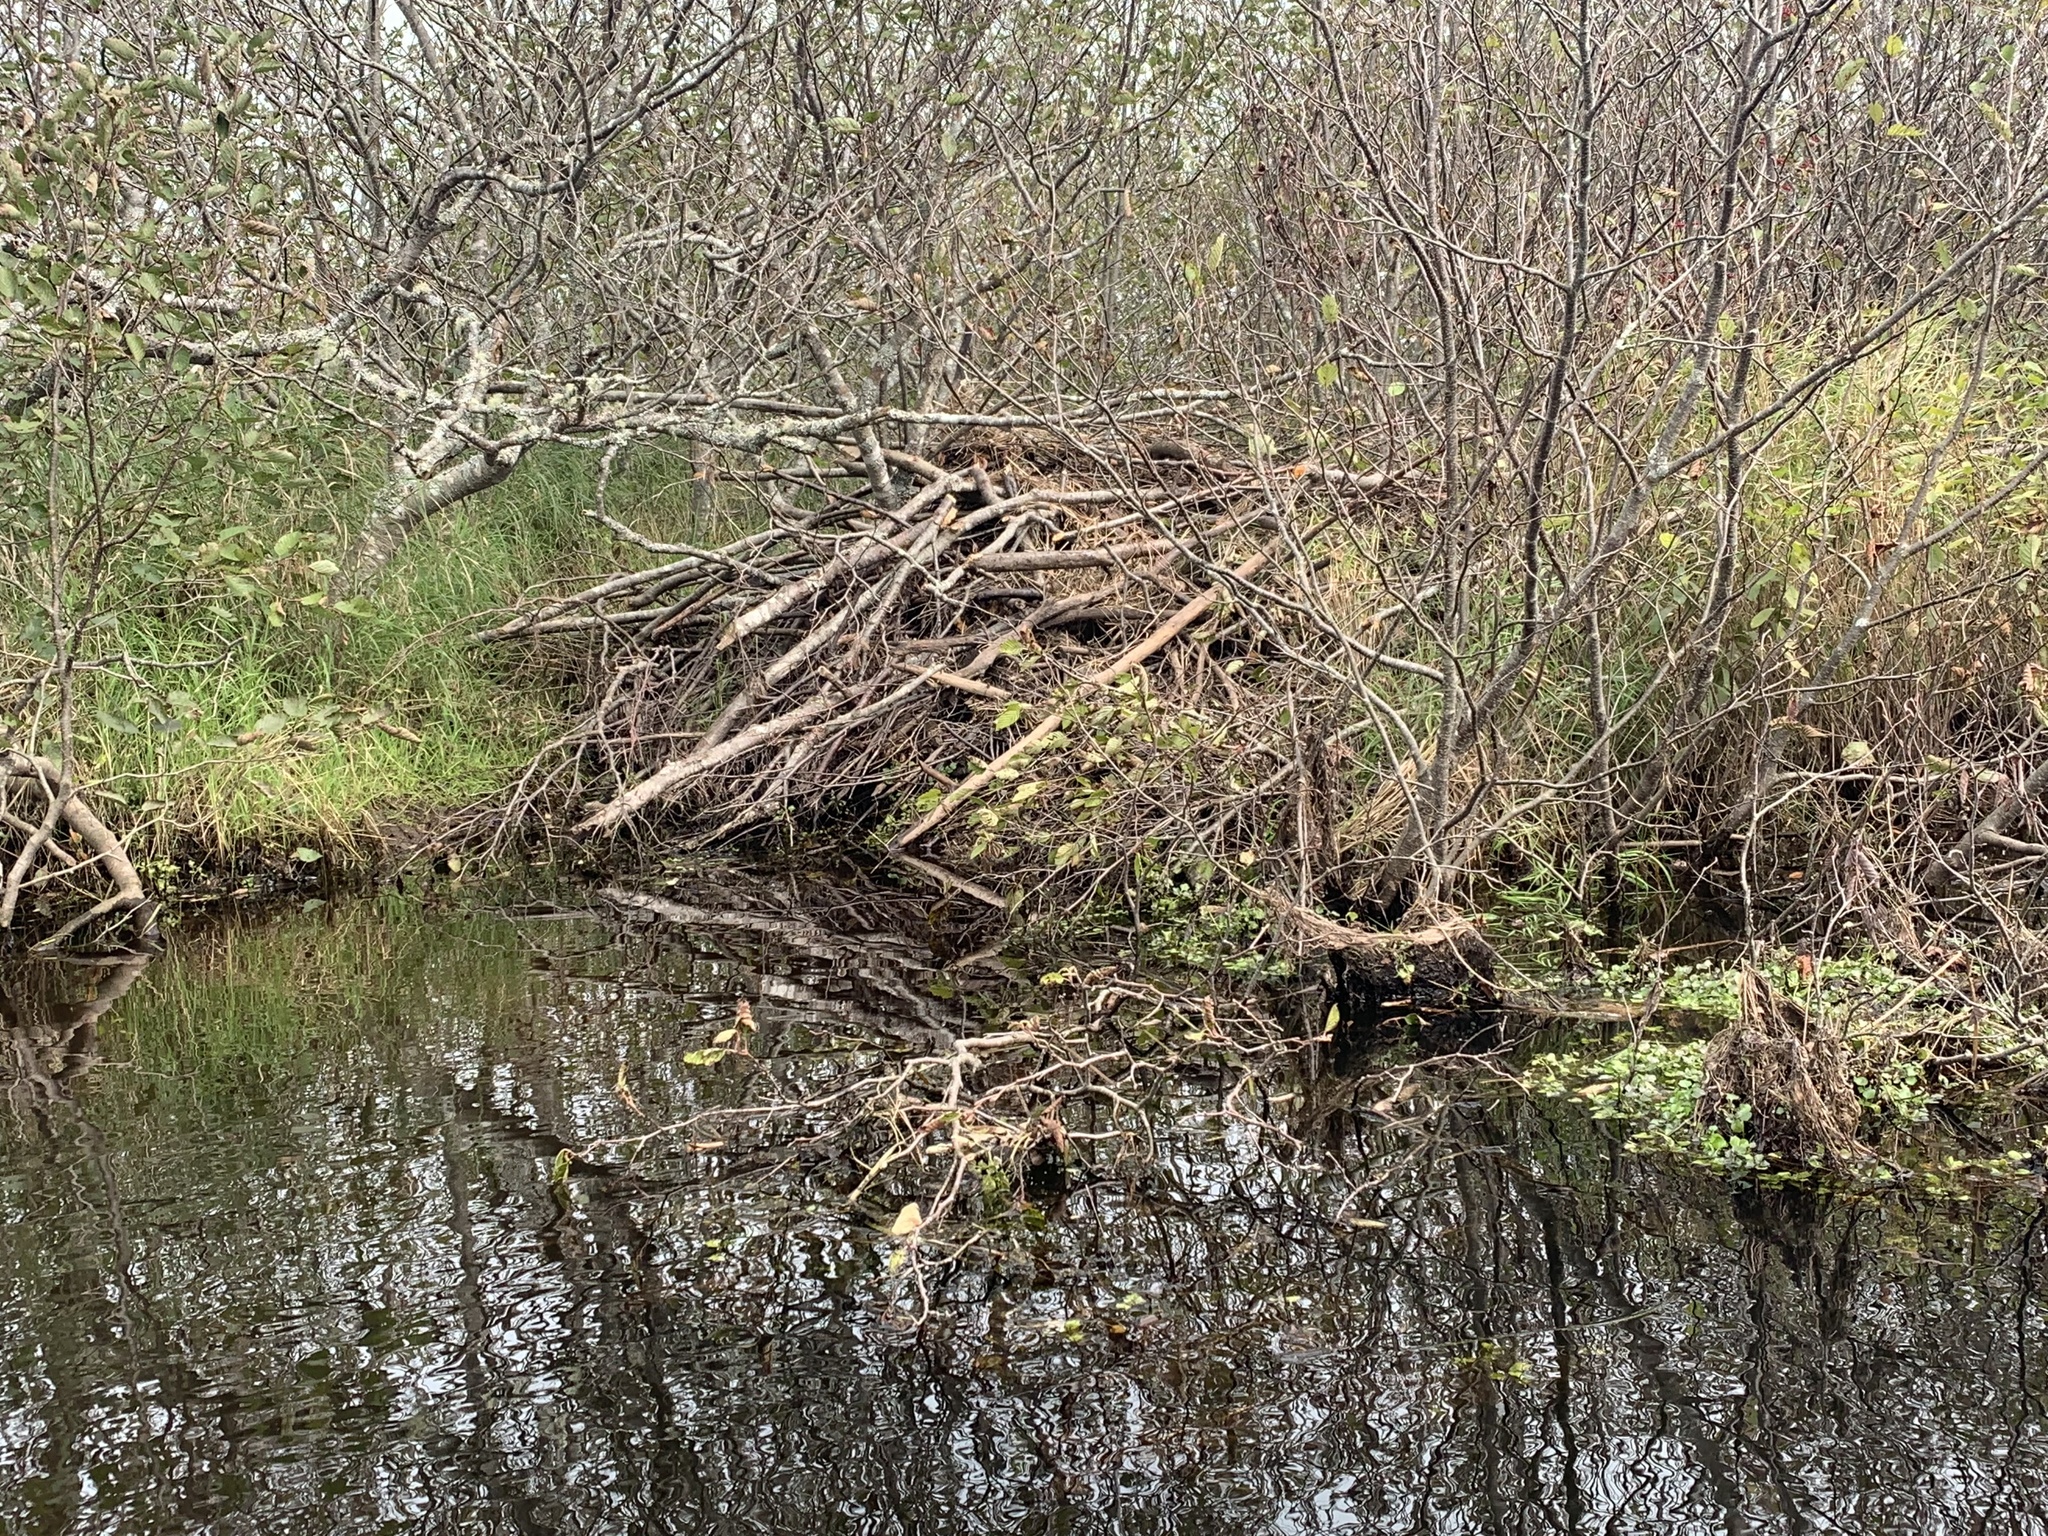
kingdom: Animalia
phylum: Chordata
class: Mammalia
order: Rodentia
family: Castoridae
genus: Castor
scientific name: Castor canadensis
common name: American beaver
